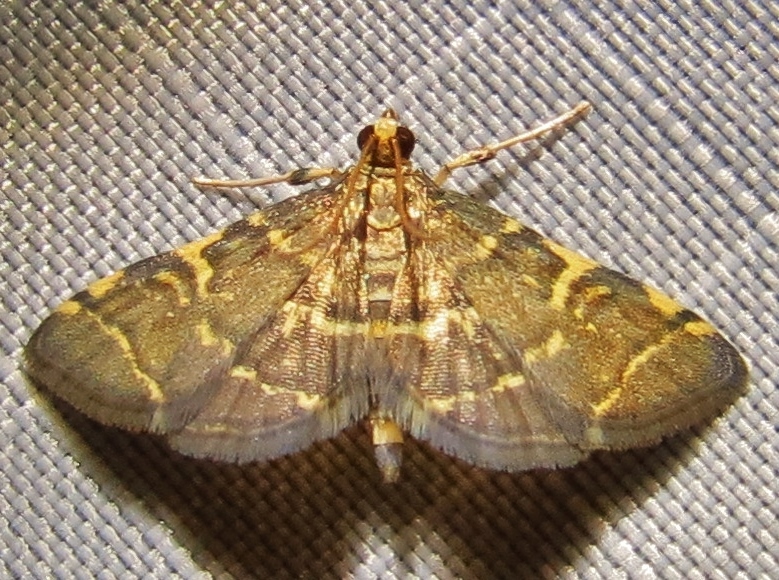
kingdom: Animalia
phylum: Arthropoda
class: Insecta
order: Lepidoptera
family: Crambidae
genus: Anageshna
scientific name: Anageshna primordialis
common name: Yellow-spotted webworm moth
